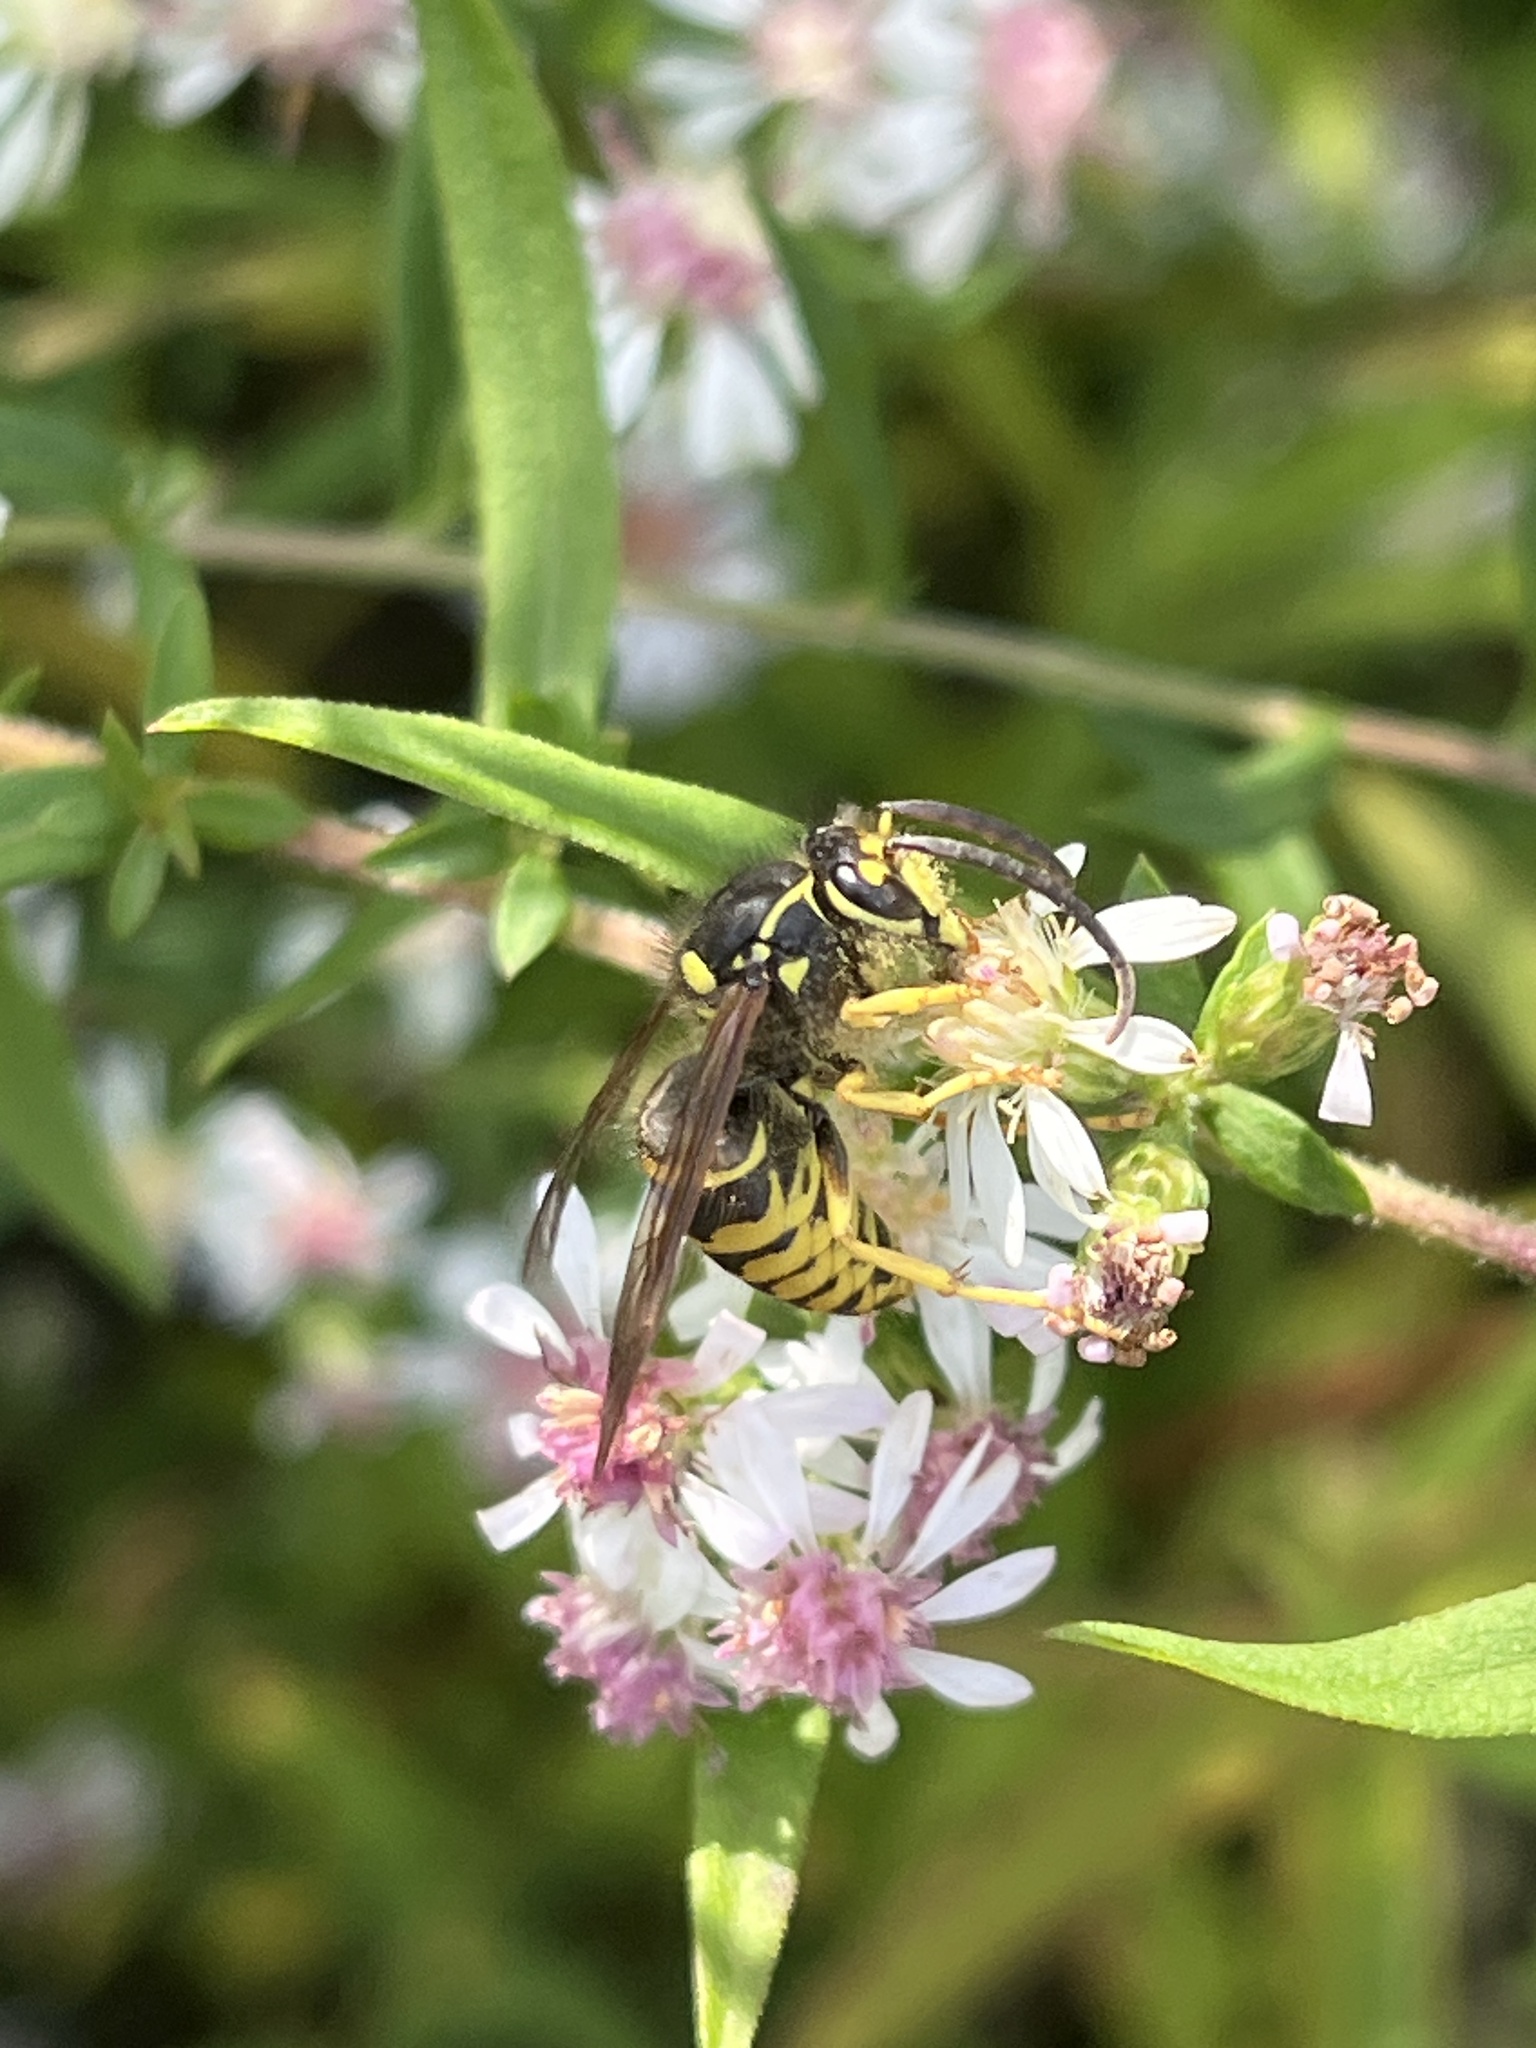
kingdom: Animalia
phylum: Arthropoda
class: Insecta
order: Hymenoptera
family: Vespidae
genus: Dolichovespula
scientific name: Dolichovespula arenaria
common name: Aerial yellowjacket
